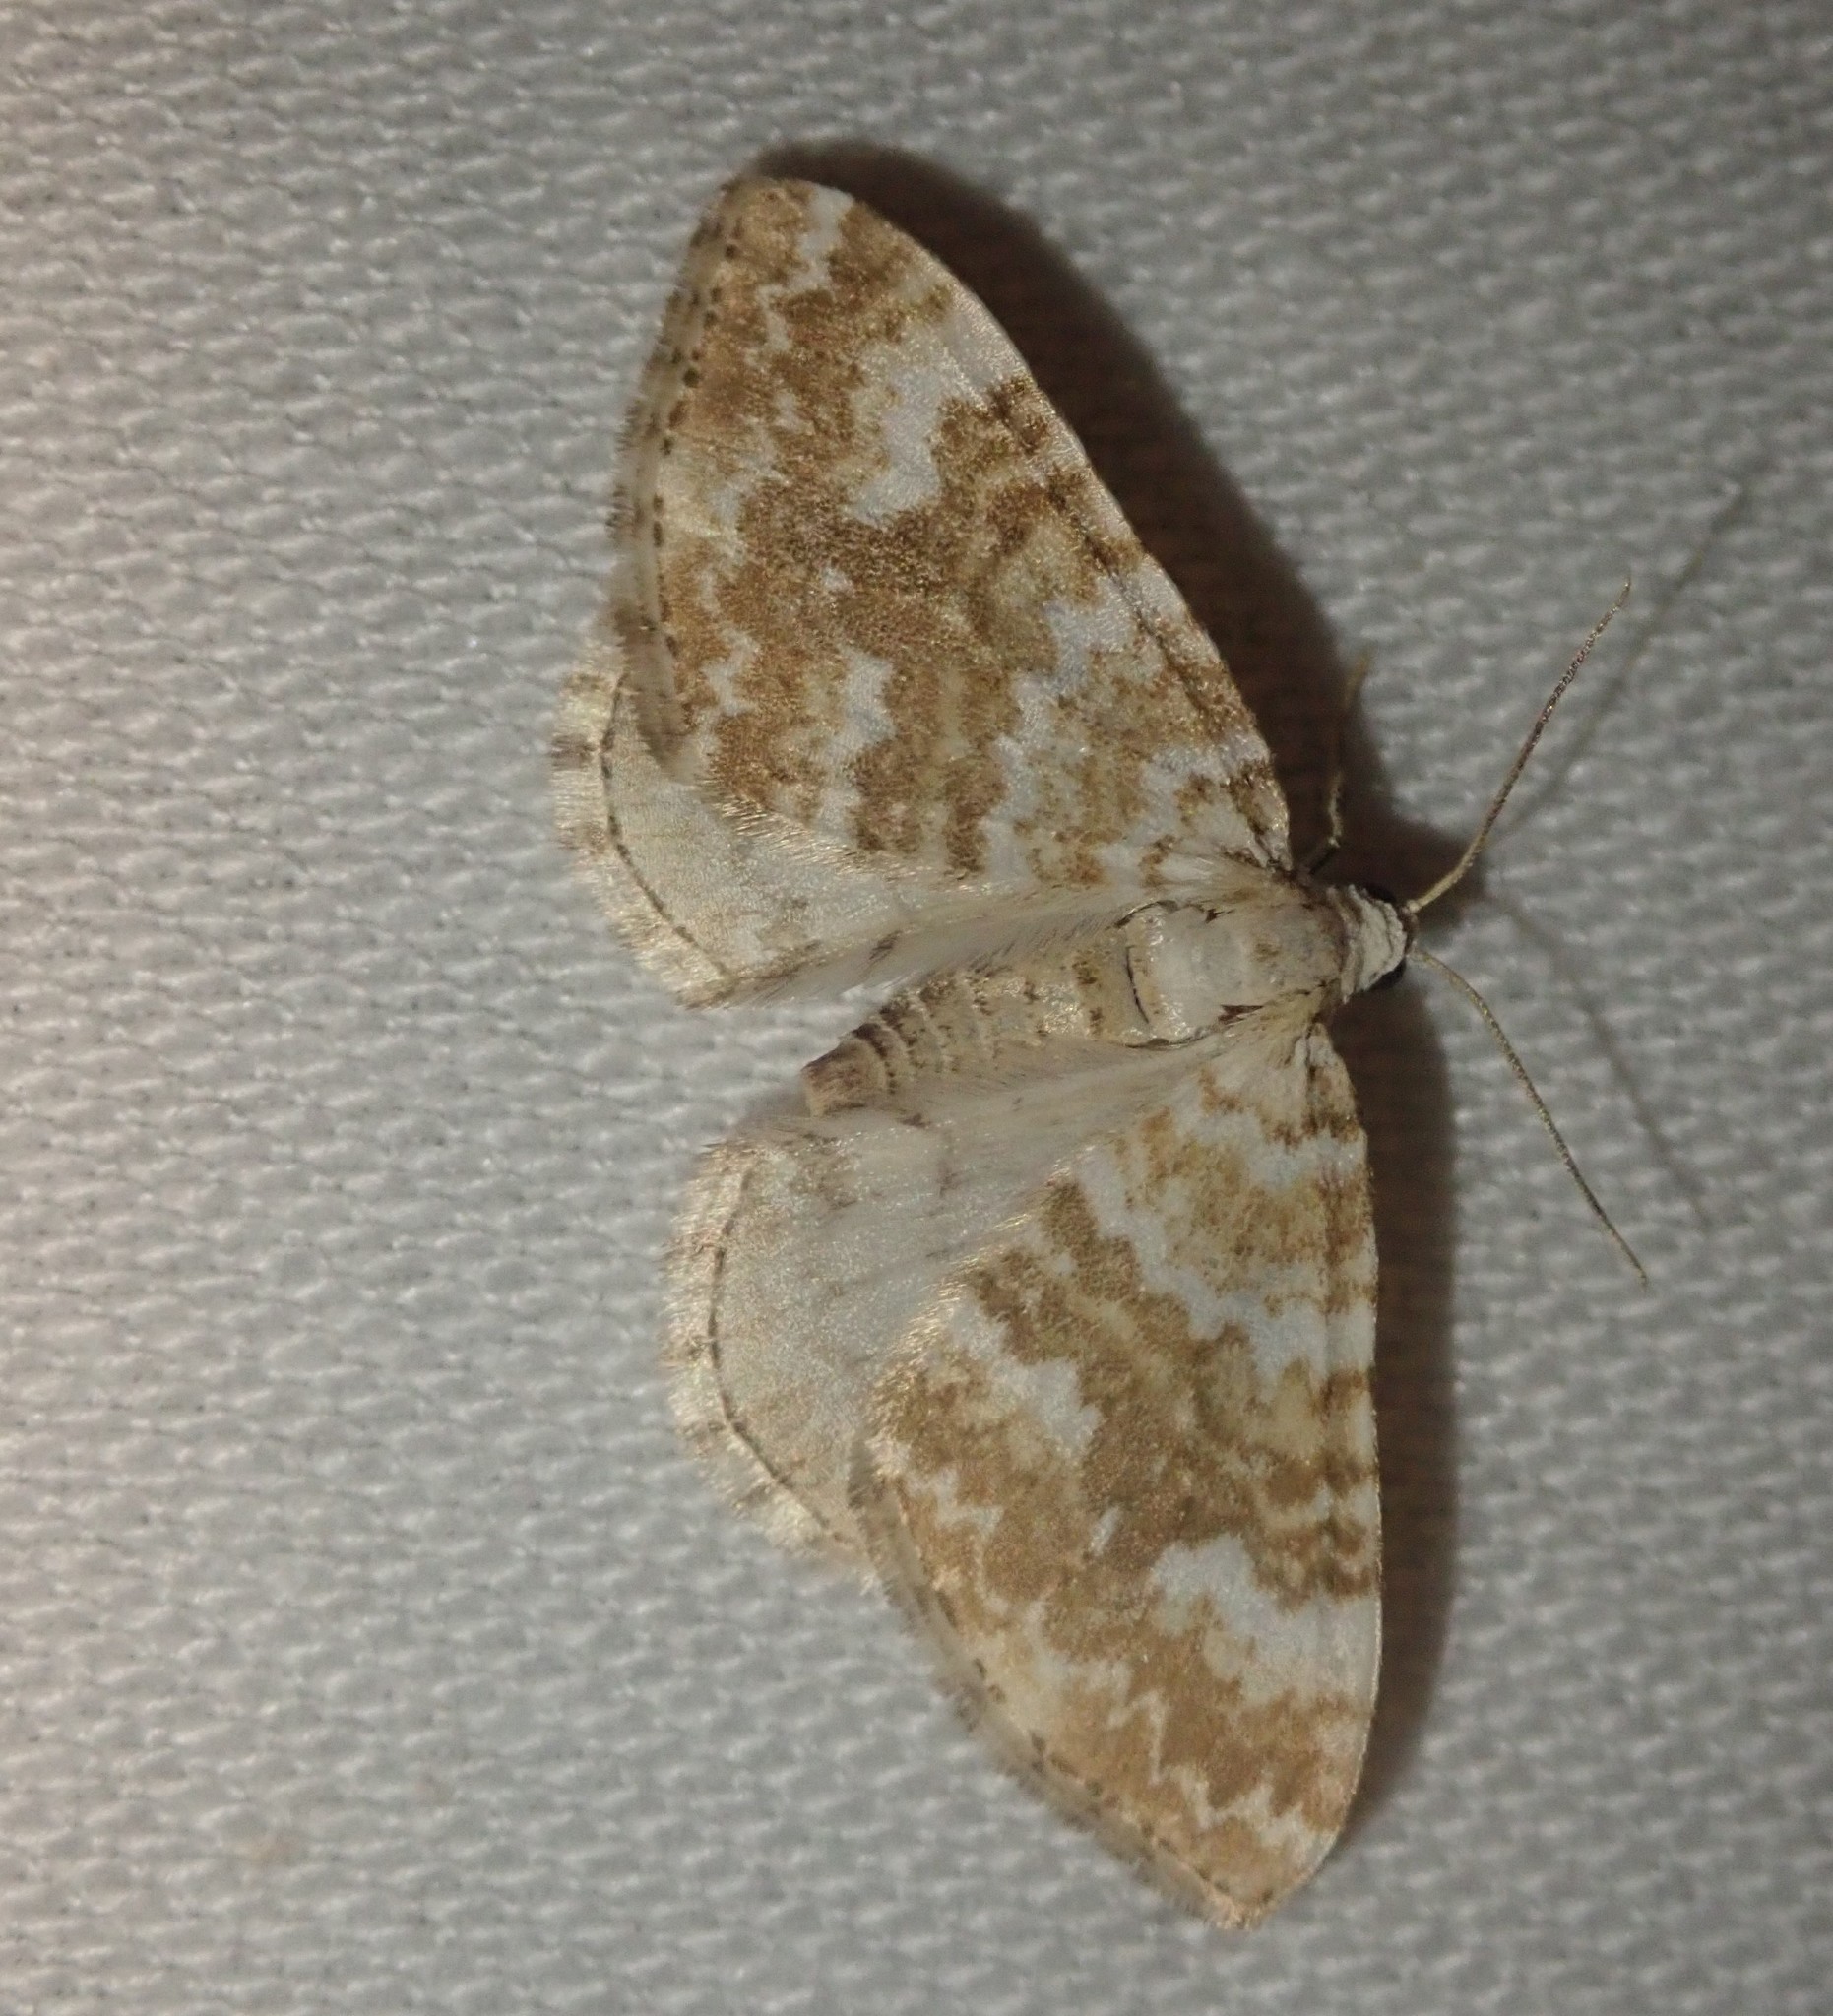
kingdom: Animalia
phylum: Arthropoda
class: Insecta
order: Lepidoptera
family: Geometridae
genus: Perizoma
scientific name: Perizoma flavofasciata
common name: Sandy carpet
